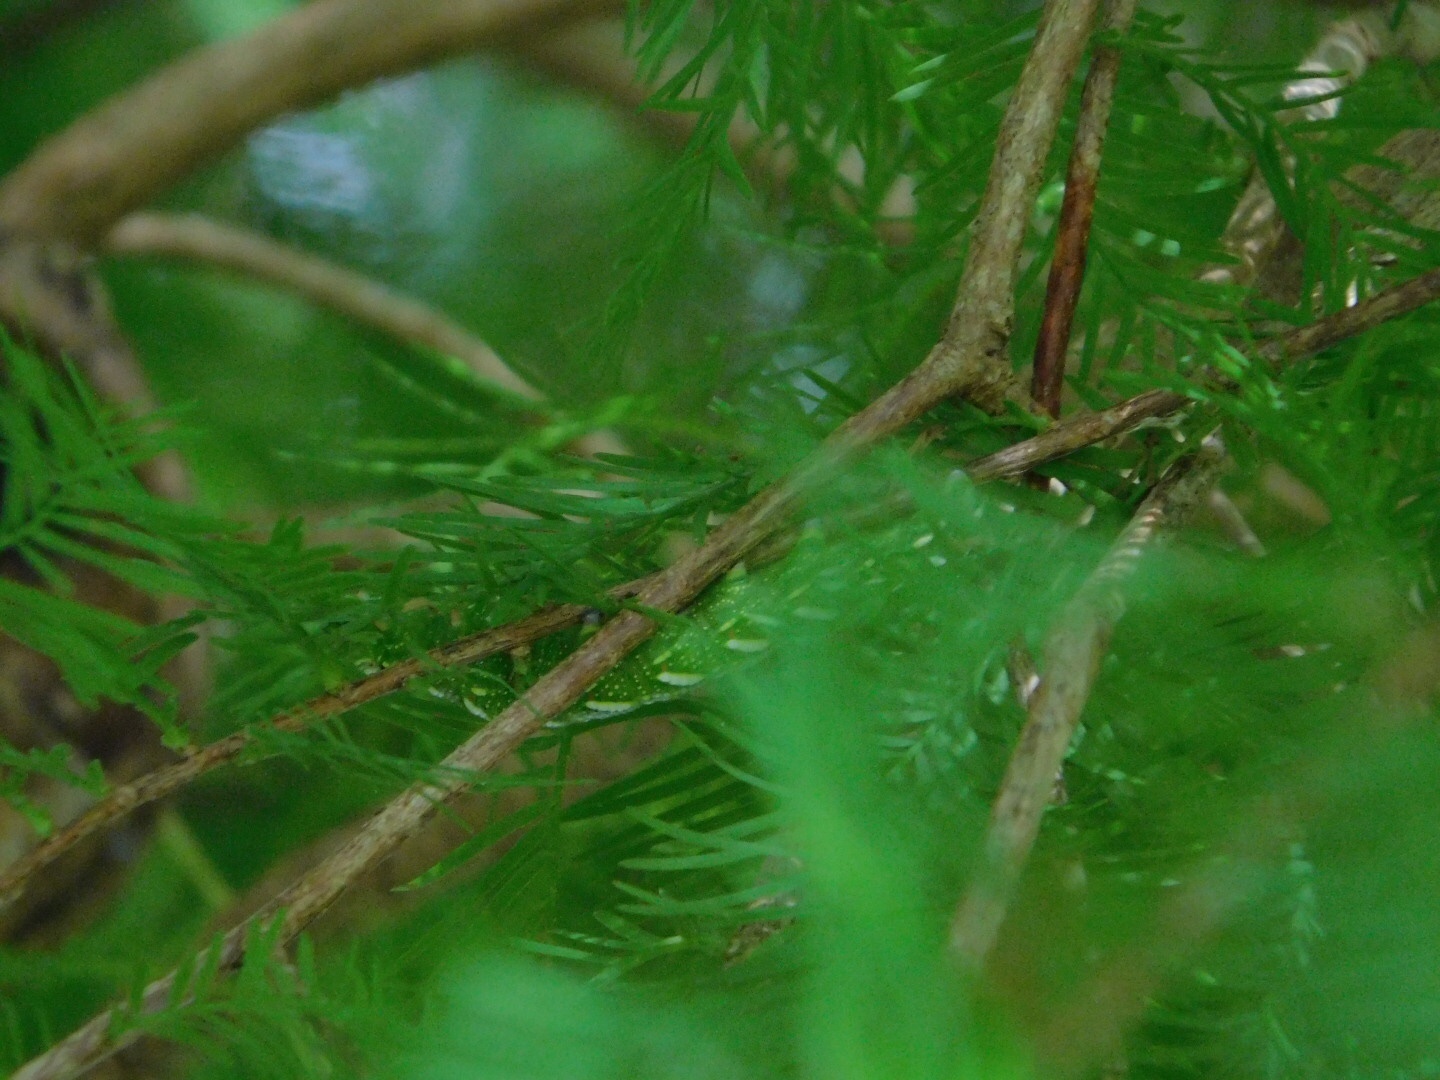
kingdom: Animalia
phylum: Arthropoda
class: Insecta
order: Lepidoptera
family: Sphingidae
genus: Isoparce
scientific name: Isoparce cupressi
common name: Cypress sphinx
